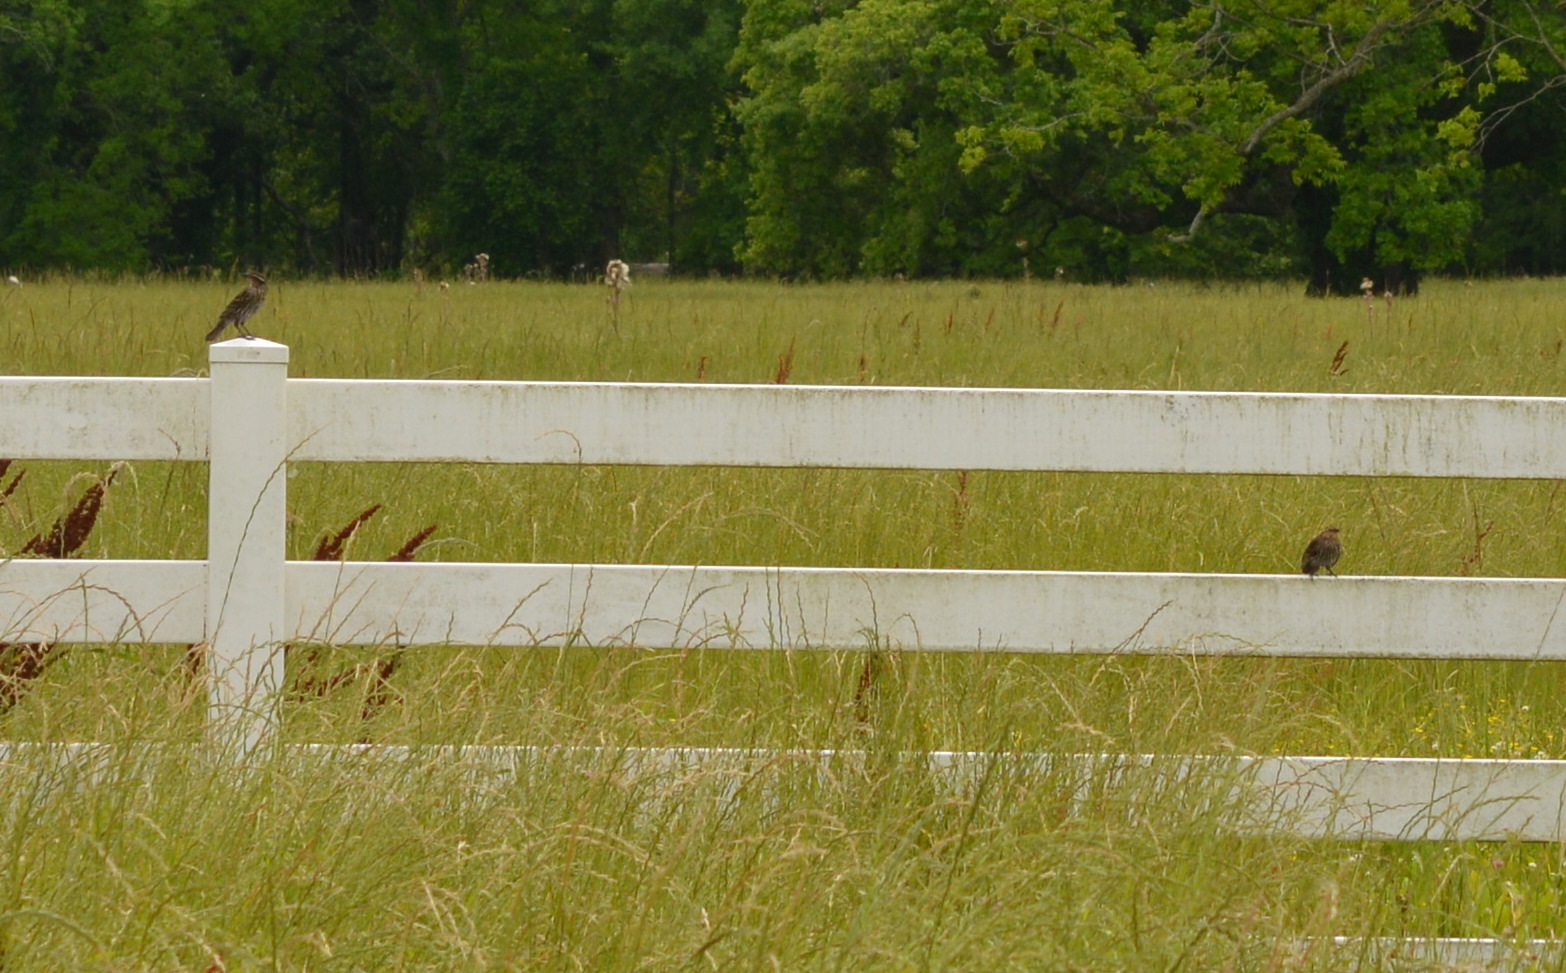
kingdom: Animalia
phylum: Chordata
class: Aves
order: Passeriformes
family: Icteridae
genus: Agelaius
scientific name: Agelaius phoeniceus
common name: Red-winged blackbird
